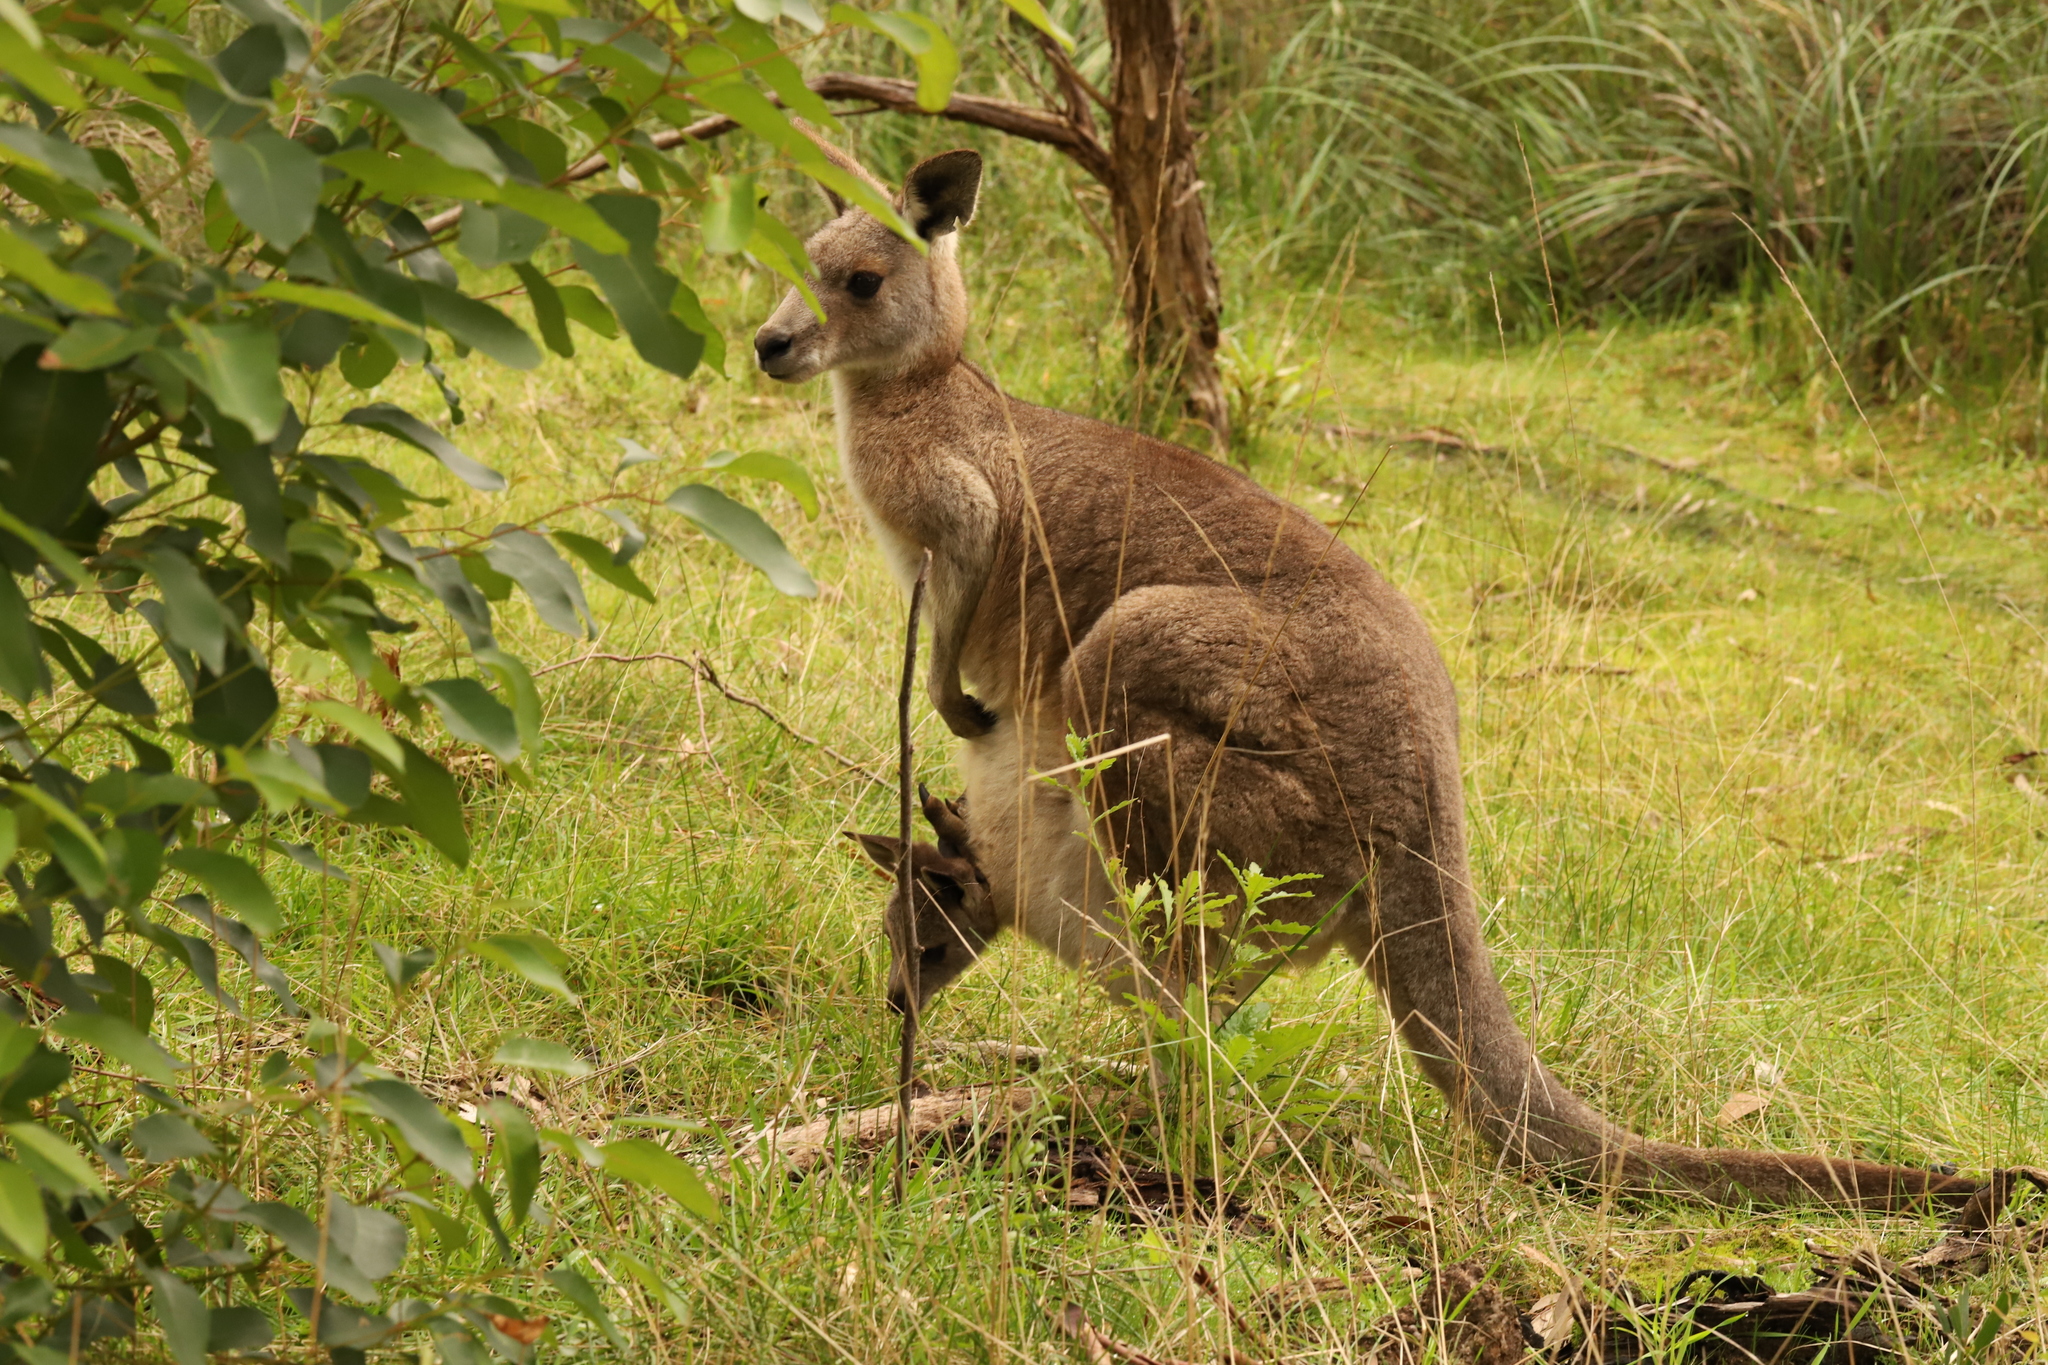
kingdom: Animalia
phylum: Chordata
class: Mammalia
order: Diprotodontia
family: Macropodidae
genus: Macropus
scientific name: Macropus giganteus
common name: Eastern grey kangaroo
